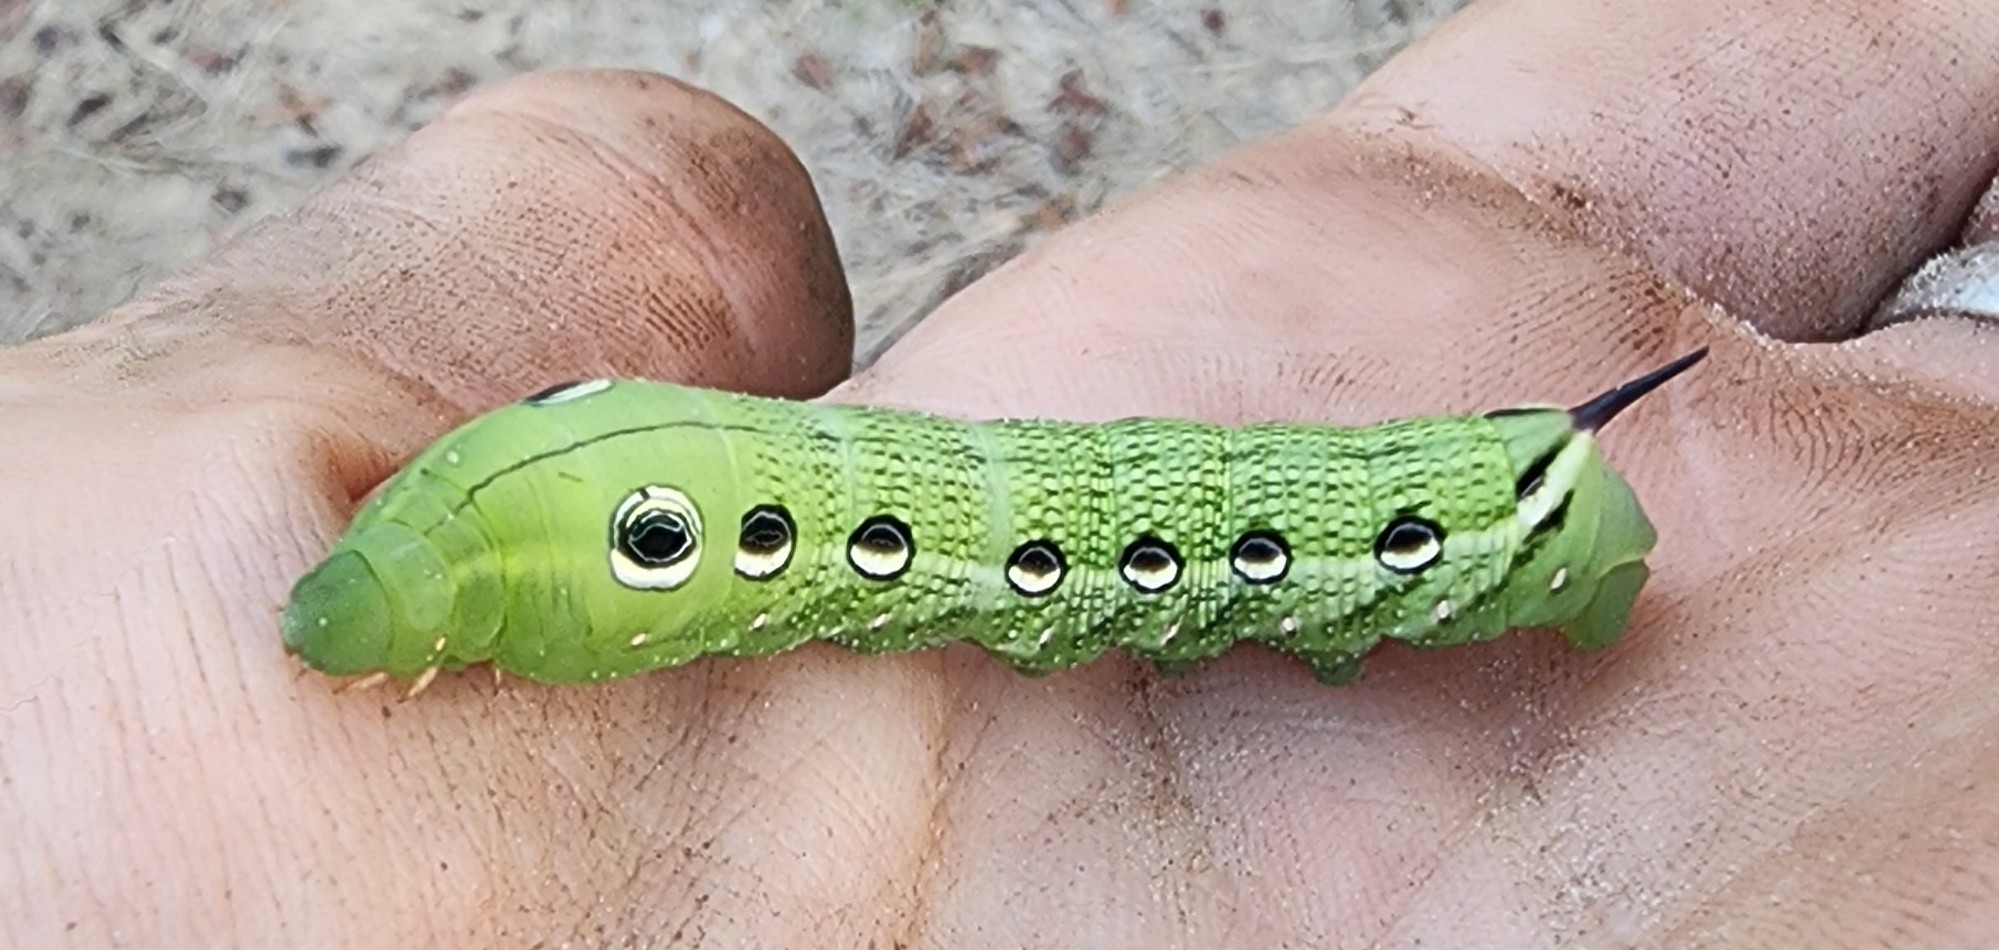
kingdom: Animalia
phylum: Arthropoda
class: Insecta
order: Lepidoptera
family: Sphingidae
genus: Xylophanes
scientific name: Xylophanes tersa
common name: Tersa sphinx
